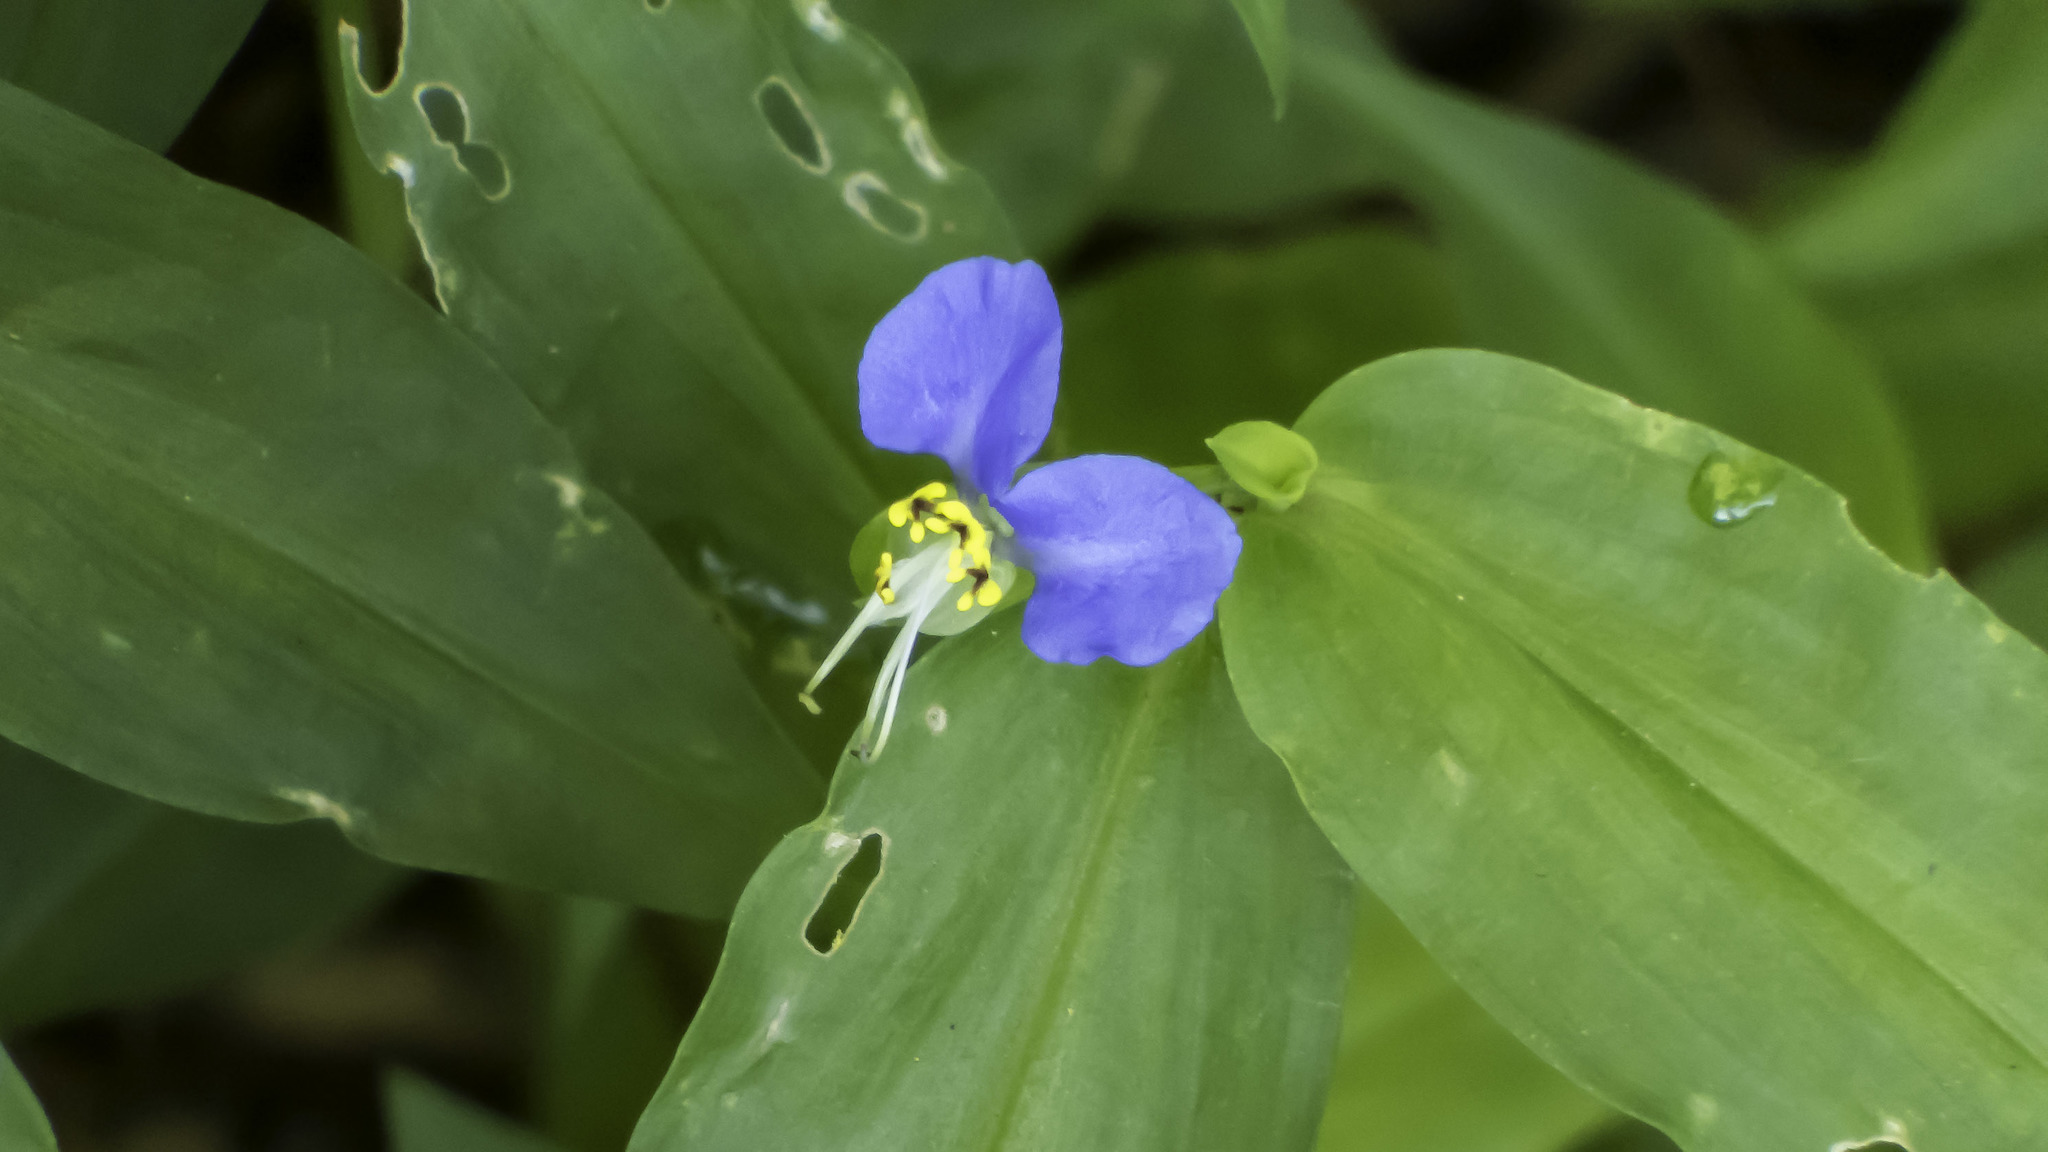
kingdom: Plantae
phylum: Tracheophyta
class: Liliopsida
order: Commelinales
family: Commelinaceae
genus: Commelina
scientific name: Commelina communis
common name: Asiatic dayflower
